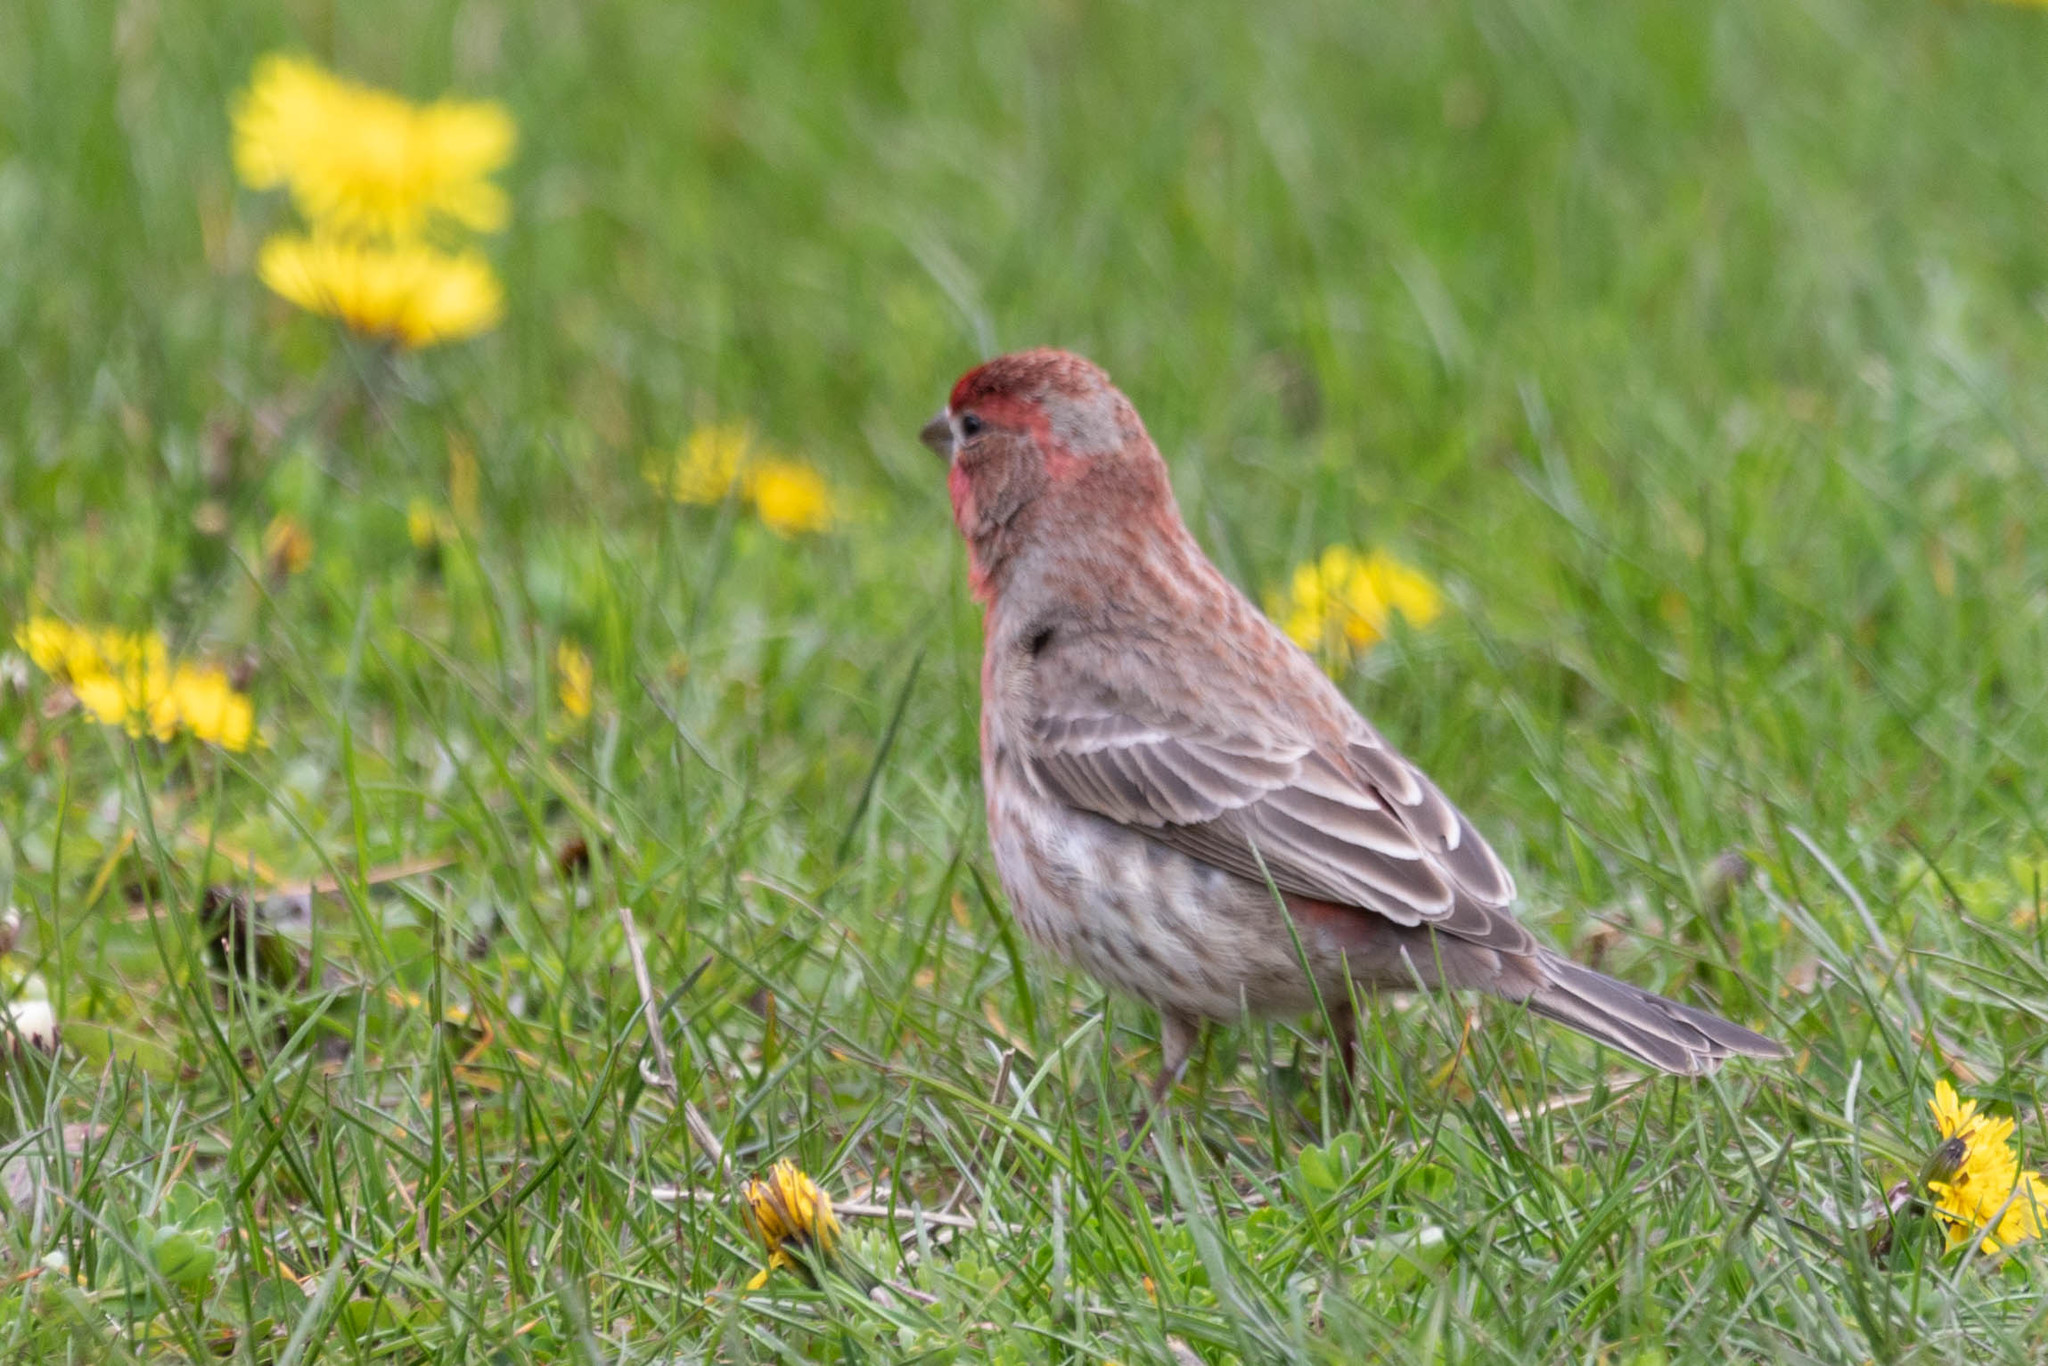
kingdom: Animalia
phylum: Chordata
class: Aves
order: Passeriformes
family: Fringillidae
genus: Haemorhous
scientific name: Haemorhous mexicanus
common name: House finch
